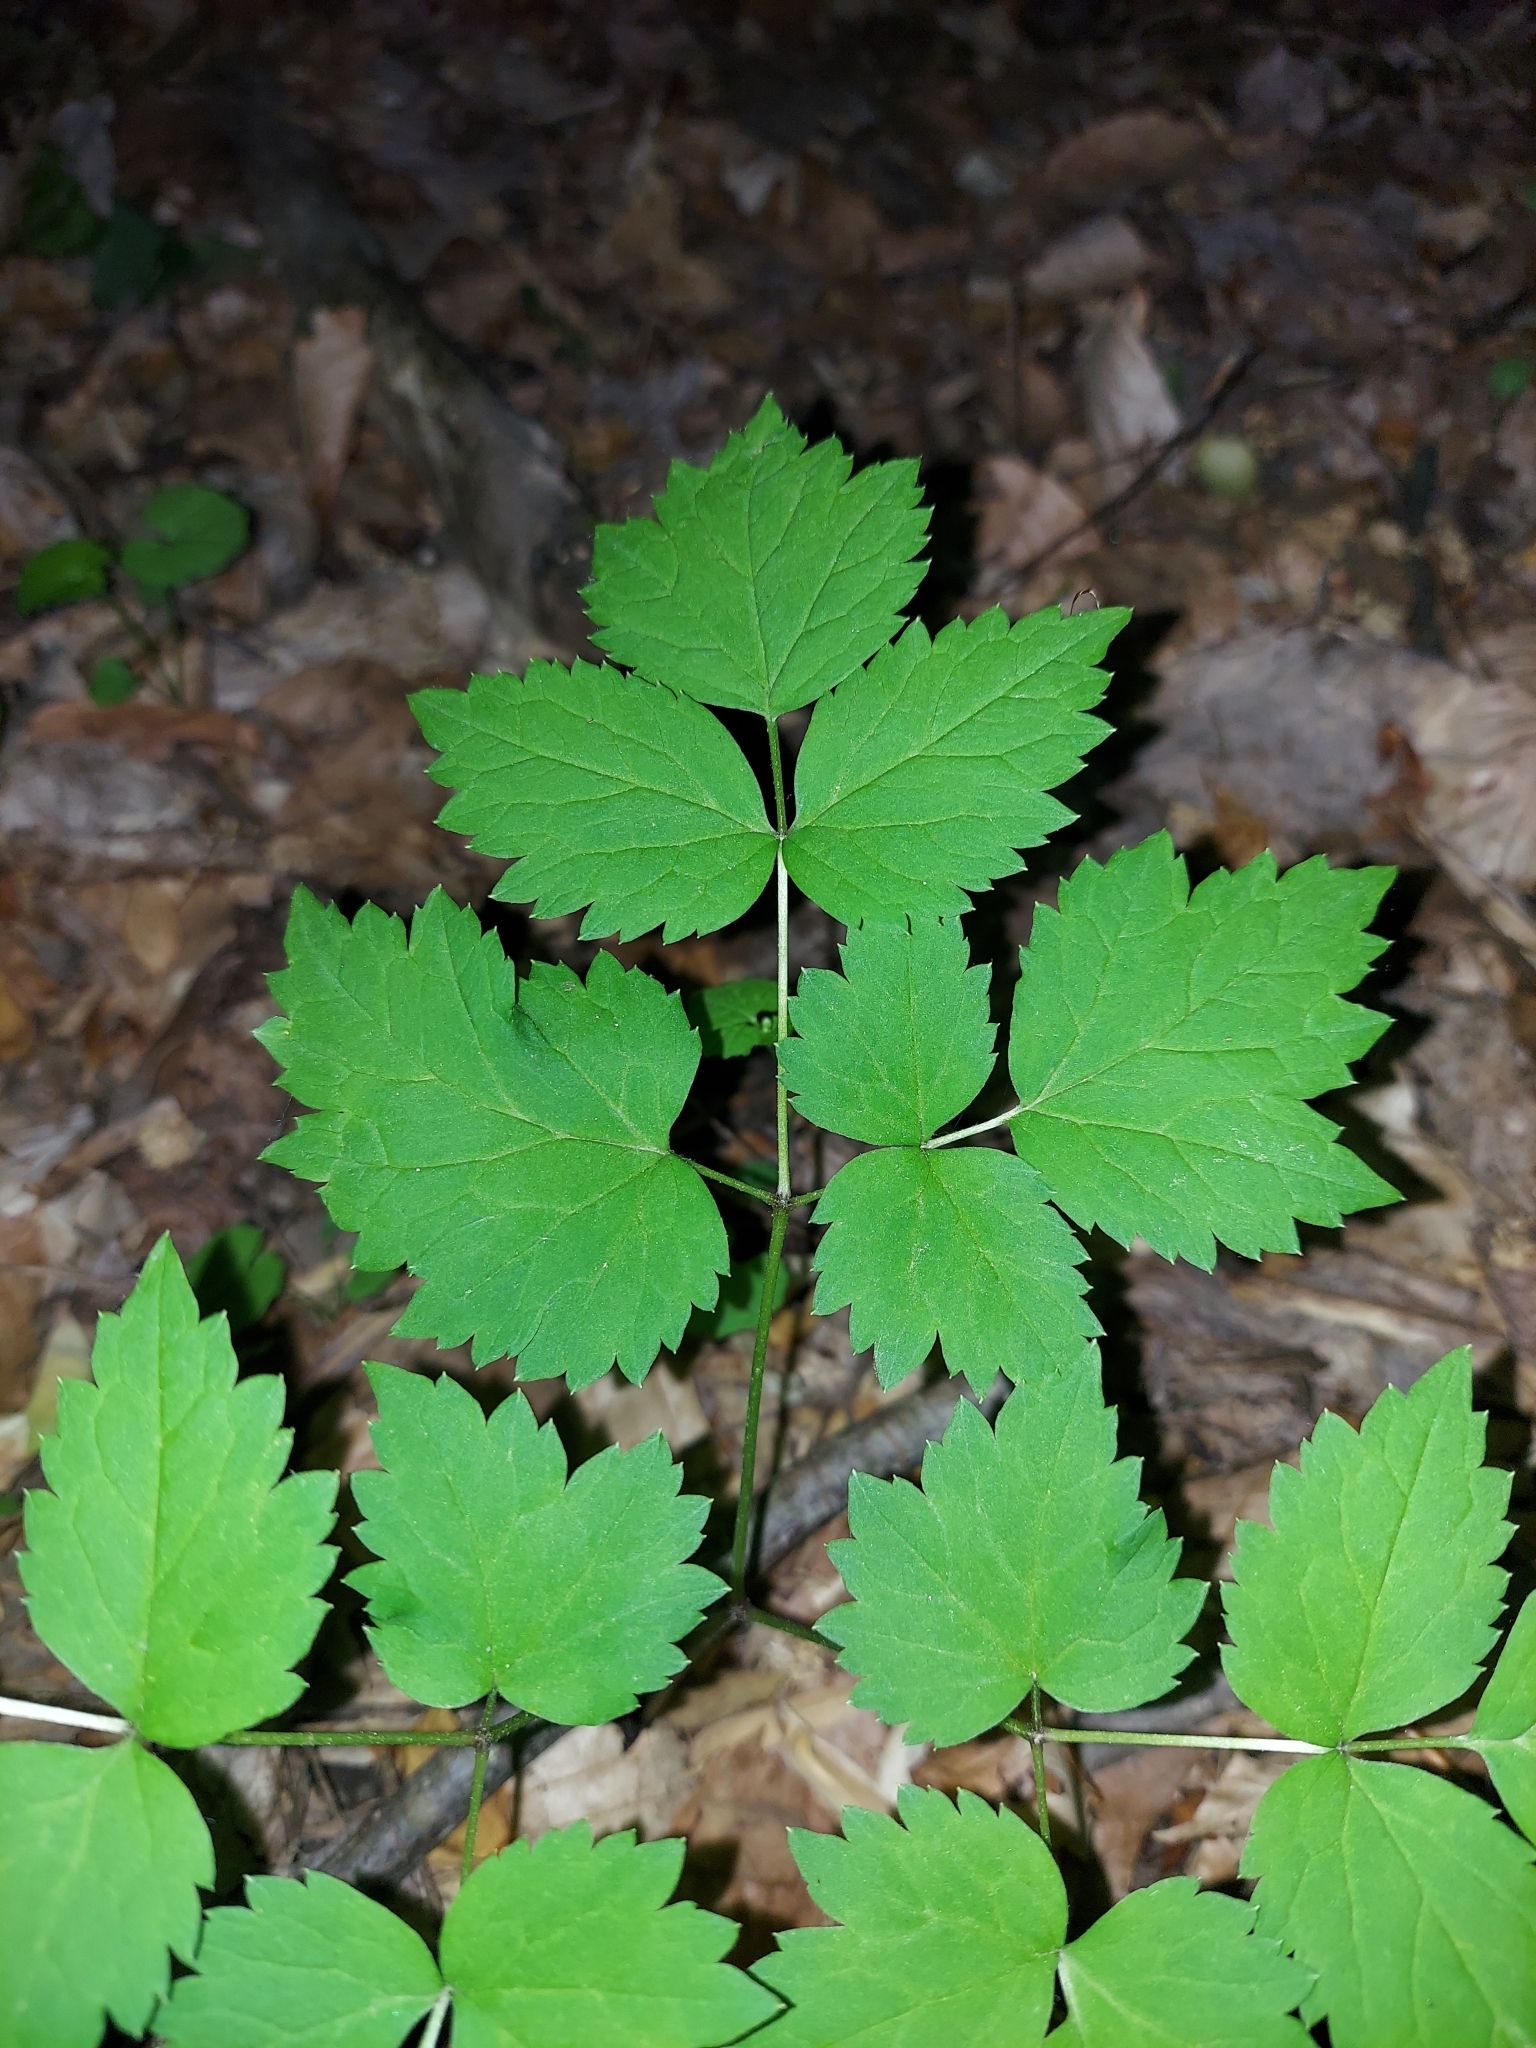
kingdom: Plantae
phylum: Tracheophyta
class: Magnoliopsida
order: Ranunculales
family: Ranunculaceae
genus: Actaea
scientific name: Actaea pachypoda
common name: Doll's-eyes
